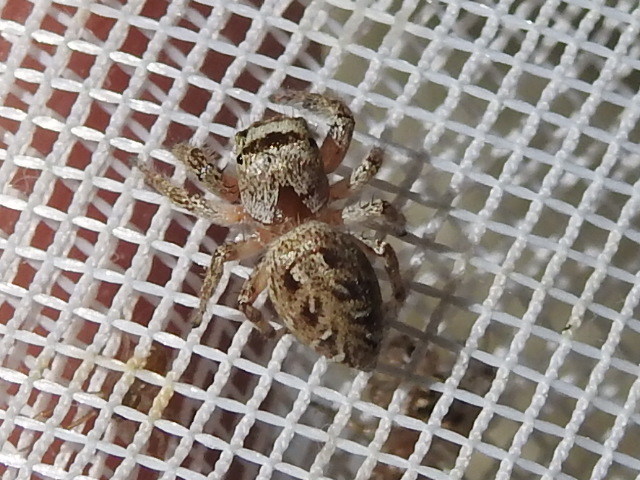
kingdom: Animalia
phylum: Arthropoda
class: Arachnida
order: Araneae
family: Salticidae
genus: Eris
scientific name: Eris militaris
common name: Bronze jumper
